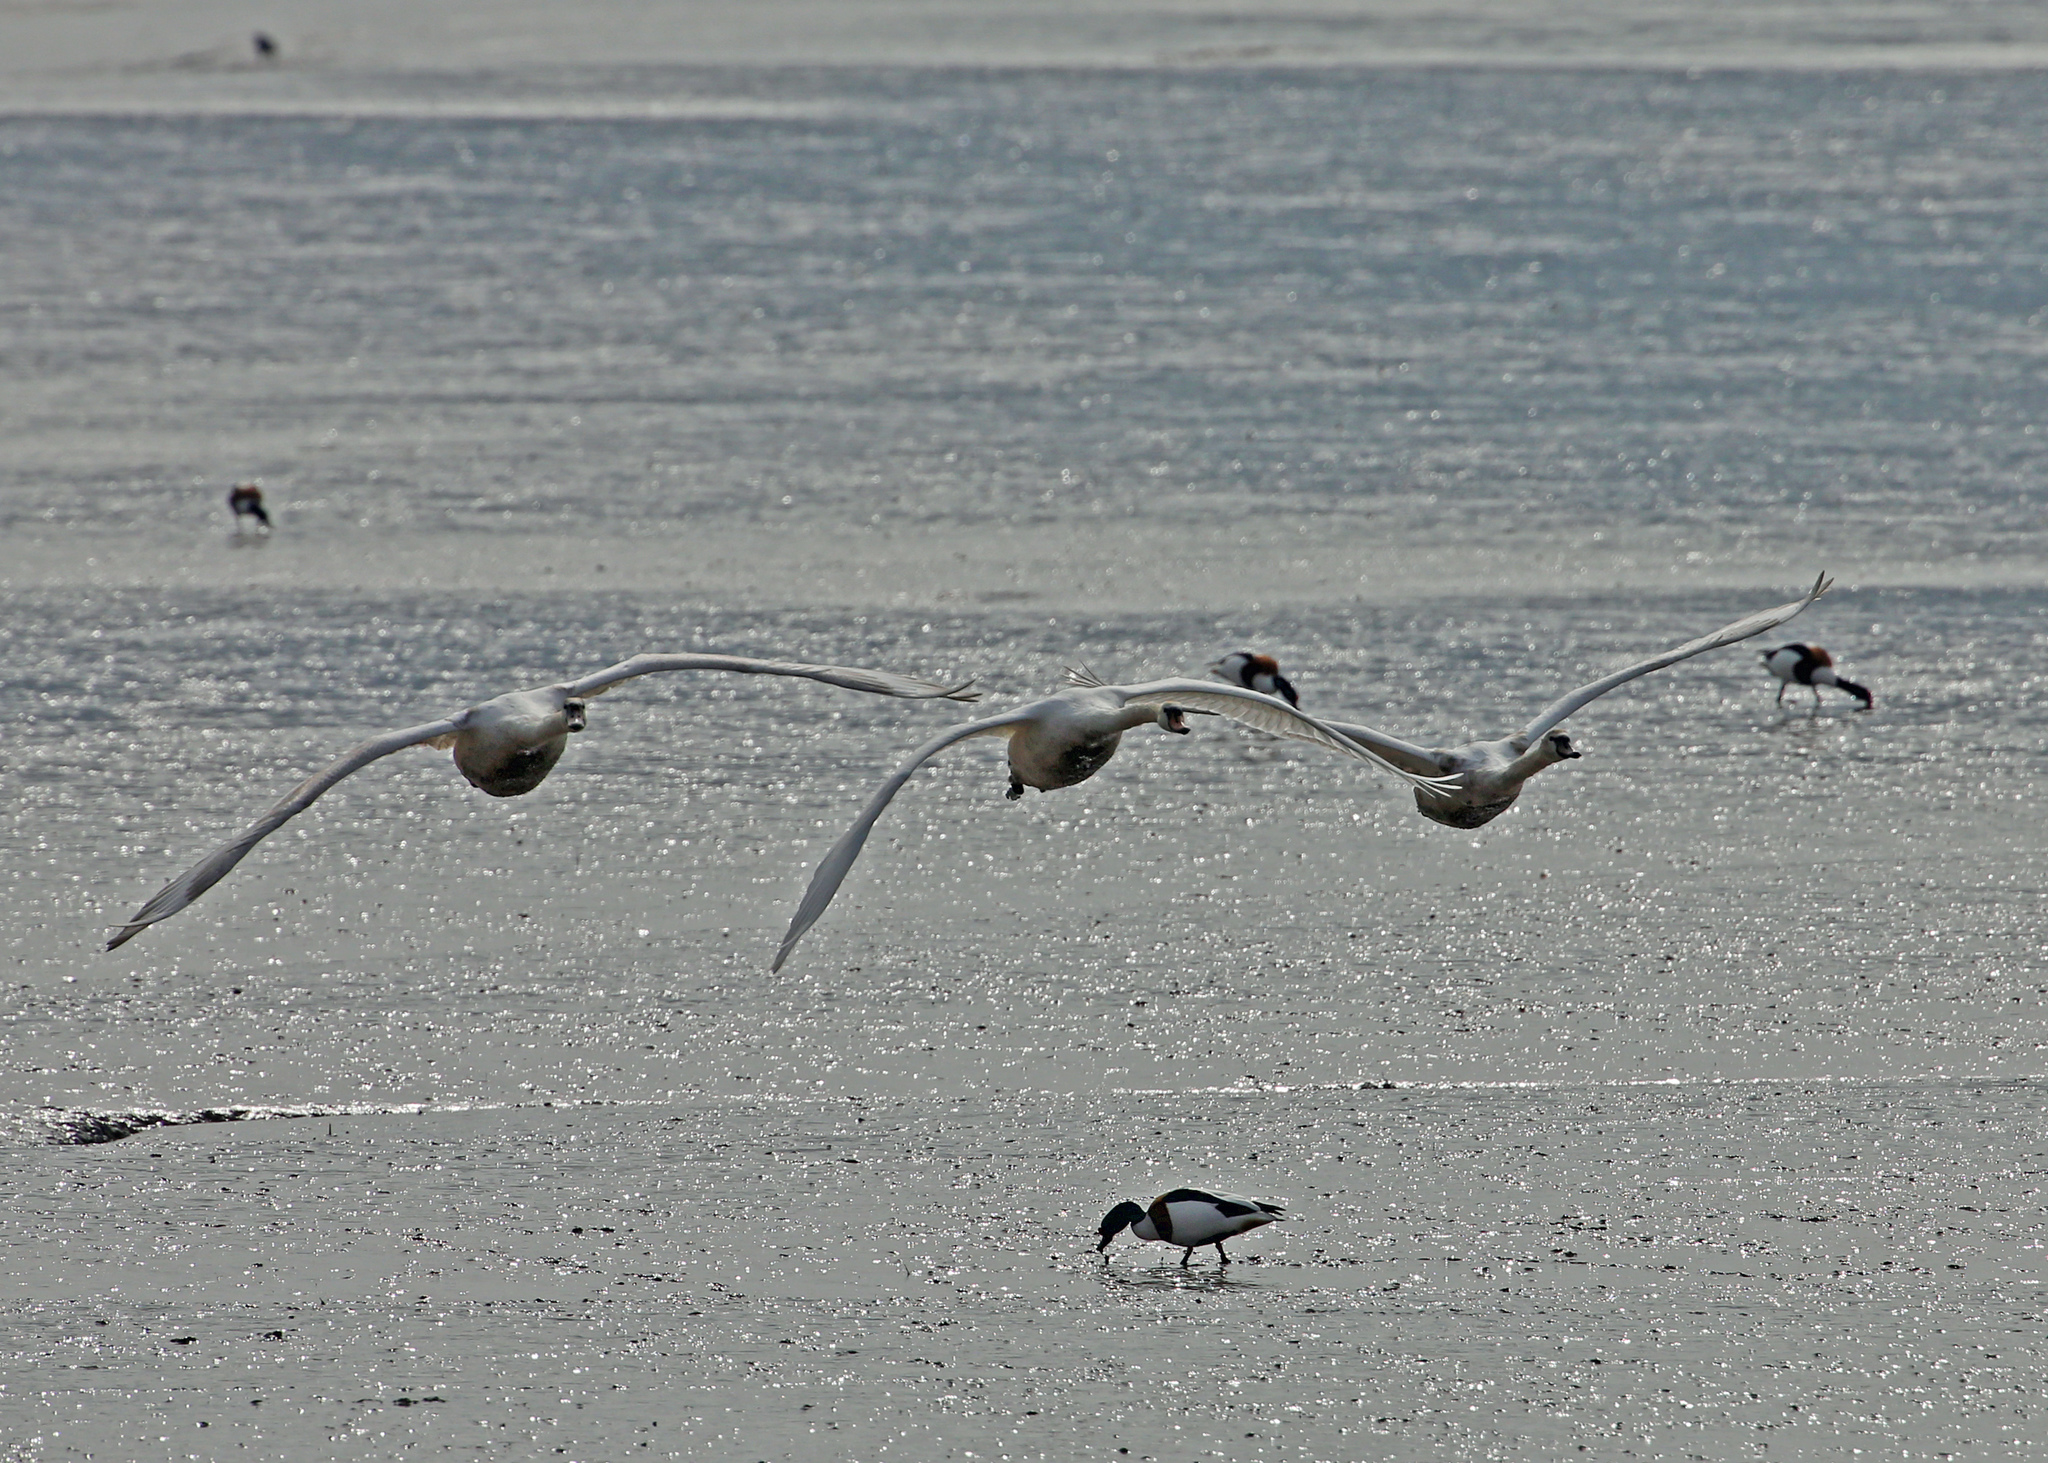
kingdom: Animalia
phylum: Chordata
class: Aves
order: Anseriformes
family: Anatidae
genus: Cygnus
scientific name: Cygnus olor
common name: Mute swan
